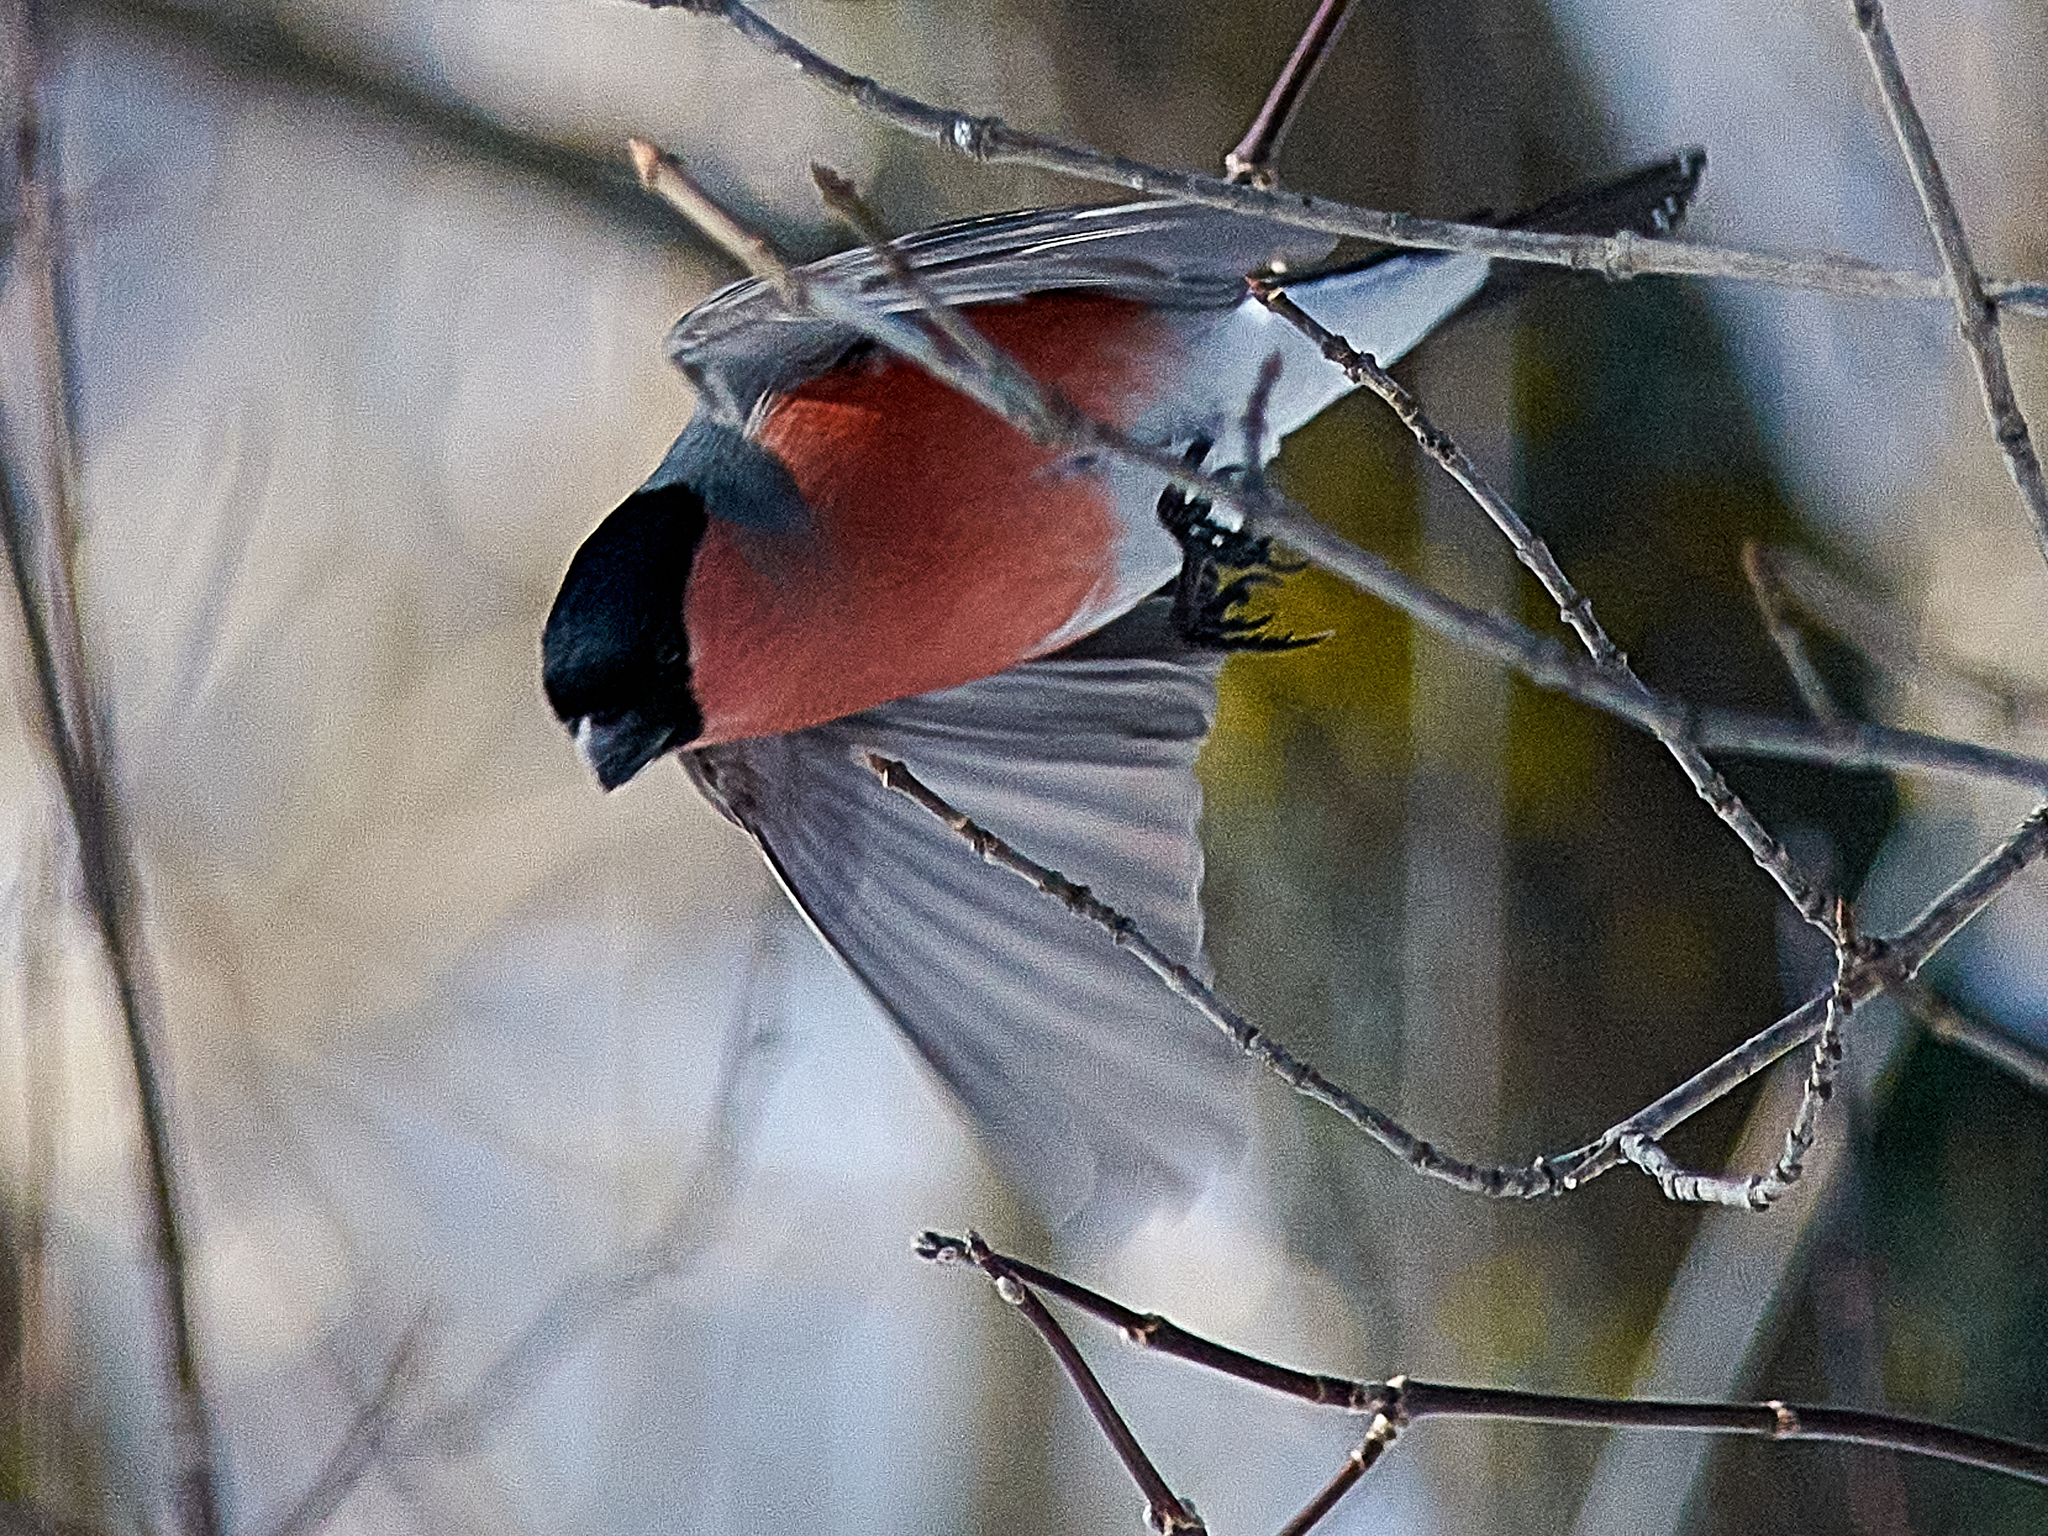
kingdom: Animalia
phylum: Chordata
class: Aves
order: Passeriformes
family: Fringillidae
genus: Pyrrhula
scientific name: Pyrrhula pyrrhula
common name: Eurasian bullfinch
